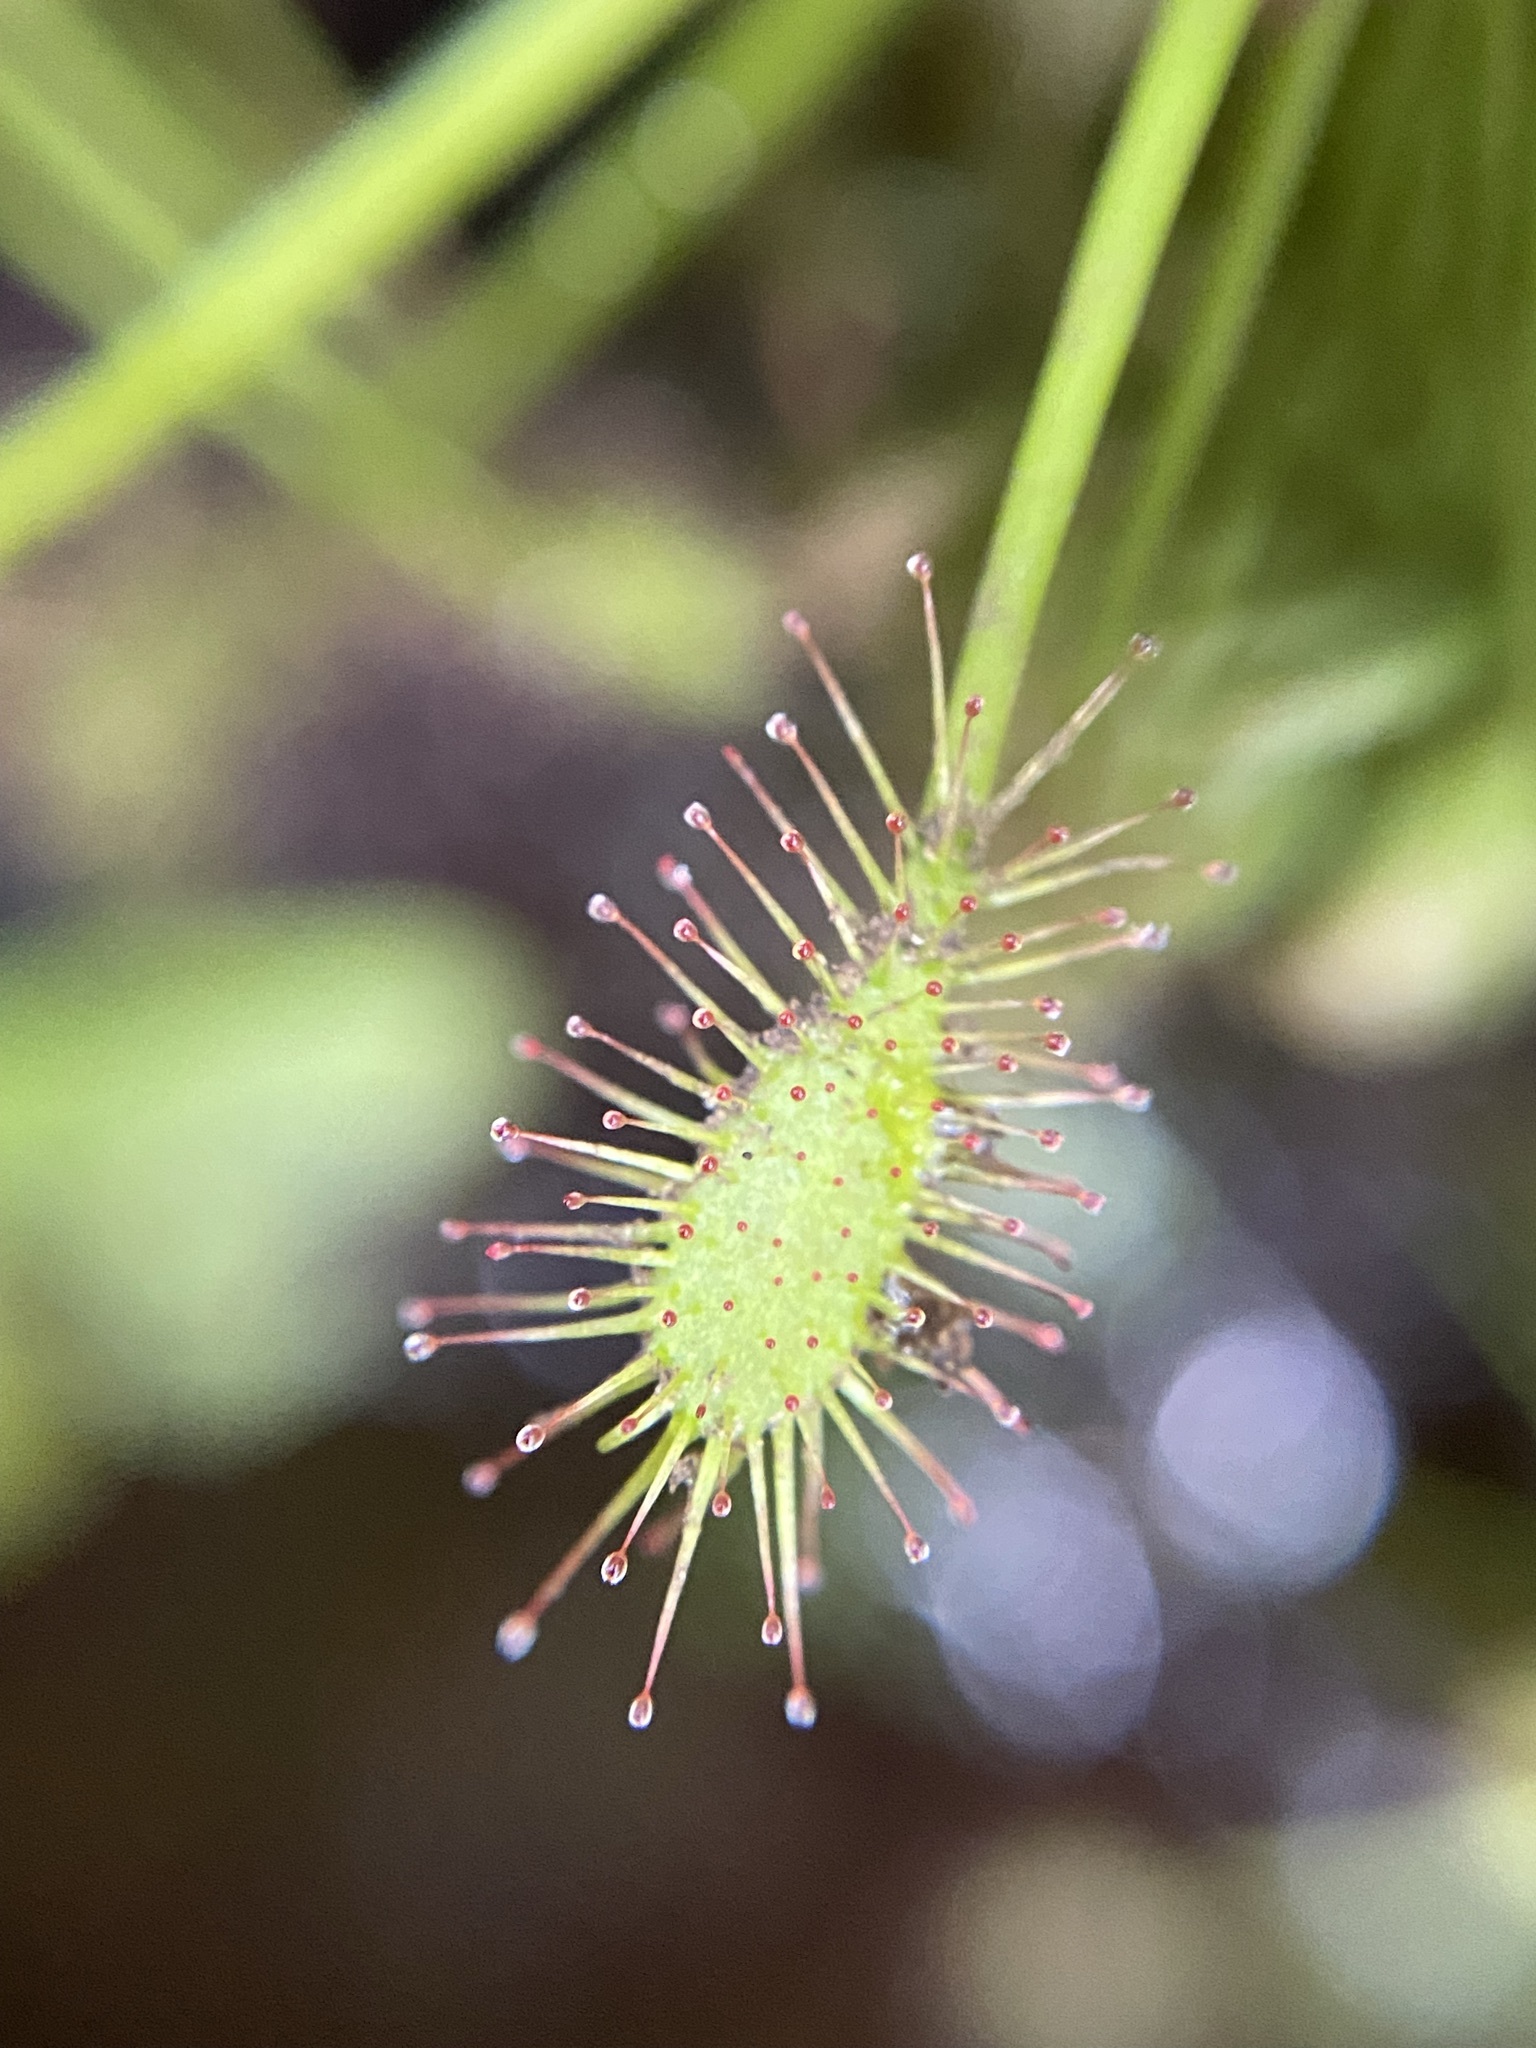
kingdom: Plantae
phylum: Tracheophyta
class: Magnoliopsida
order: Caryophyllales
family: Droseraceae
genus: Drosera
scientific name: Drosera intermedia
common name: Oblong-leaved sundew
